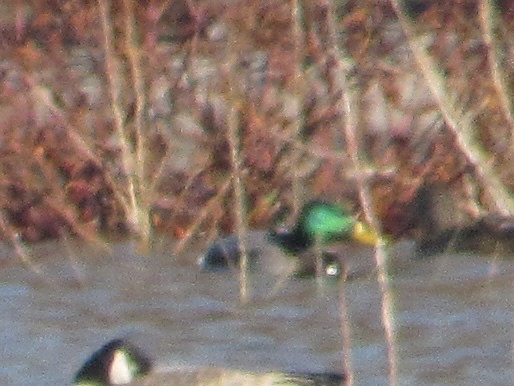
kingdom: Animalia
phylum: Chordata
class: Aves
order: Anseriformes
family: Anatidae
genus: Anas
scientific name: Anas platyrhynchos
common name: Mallard
